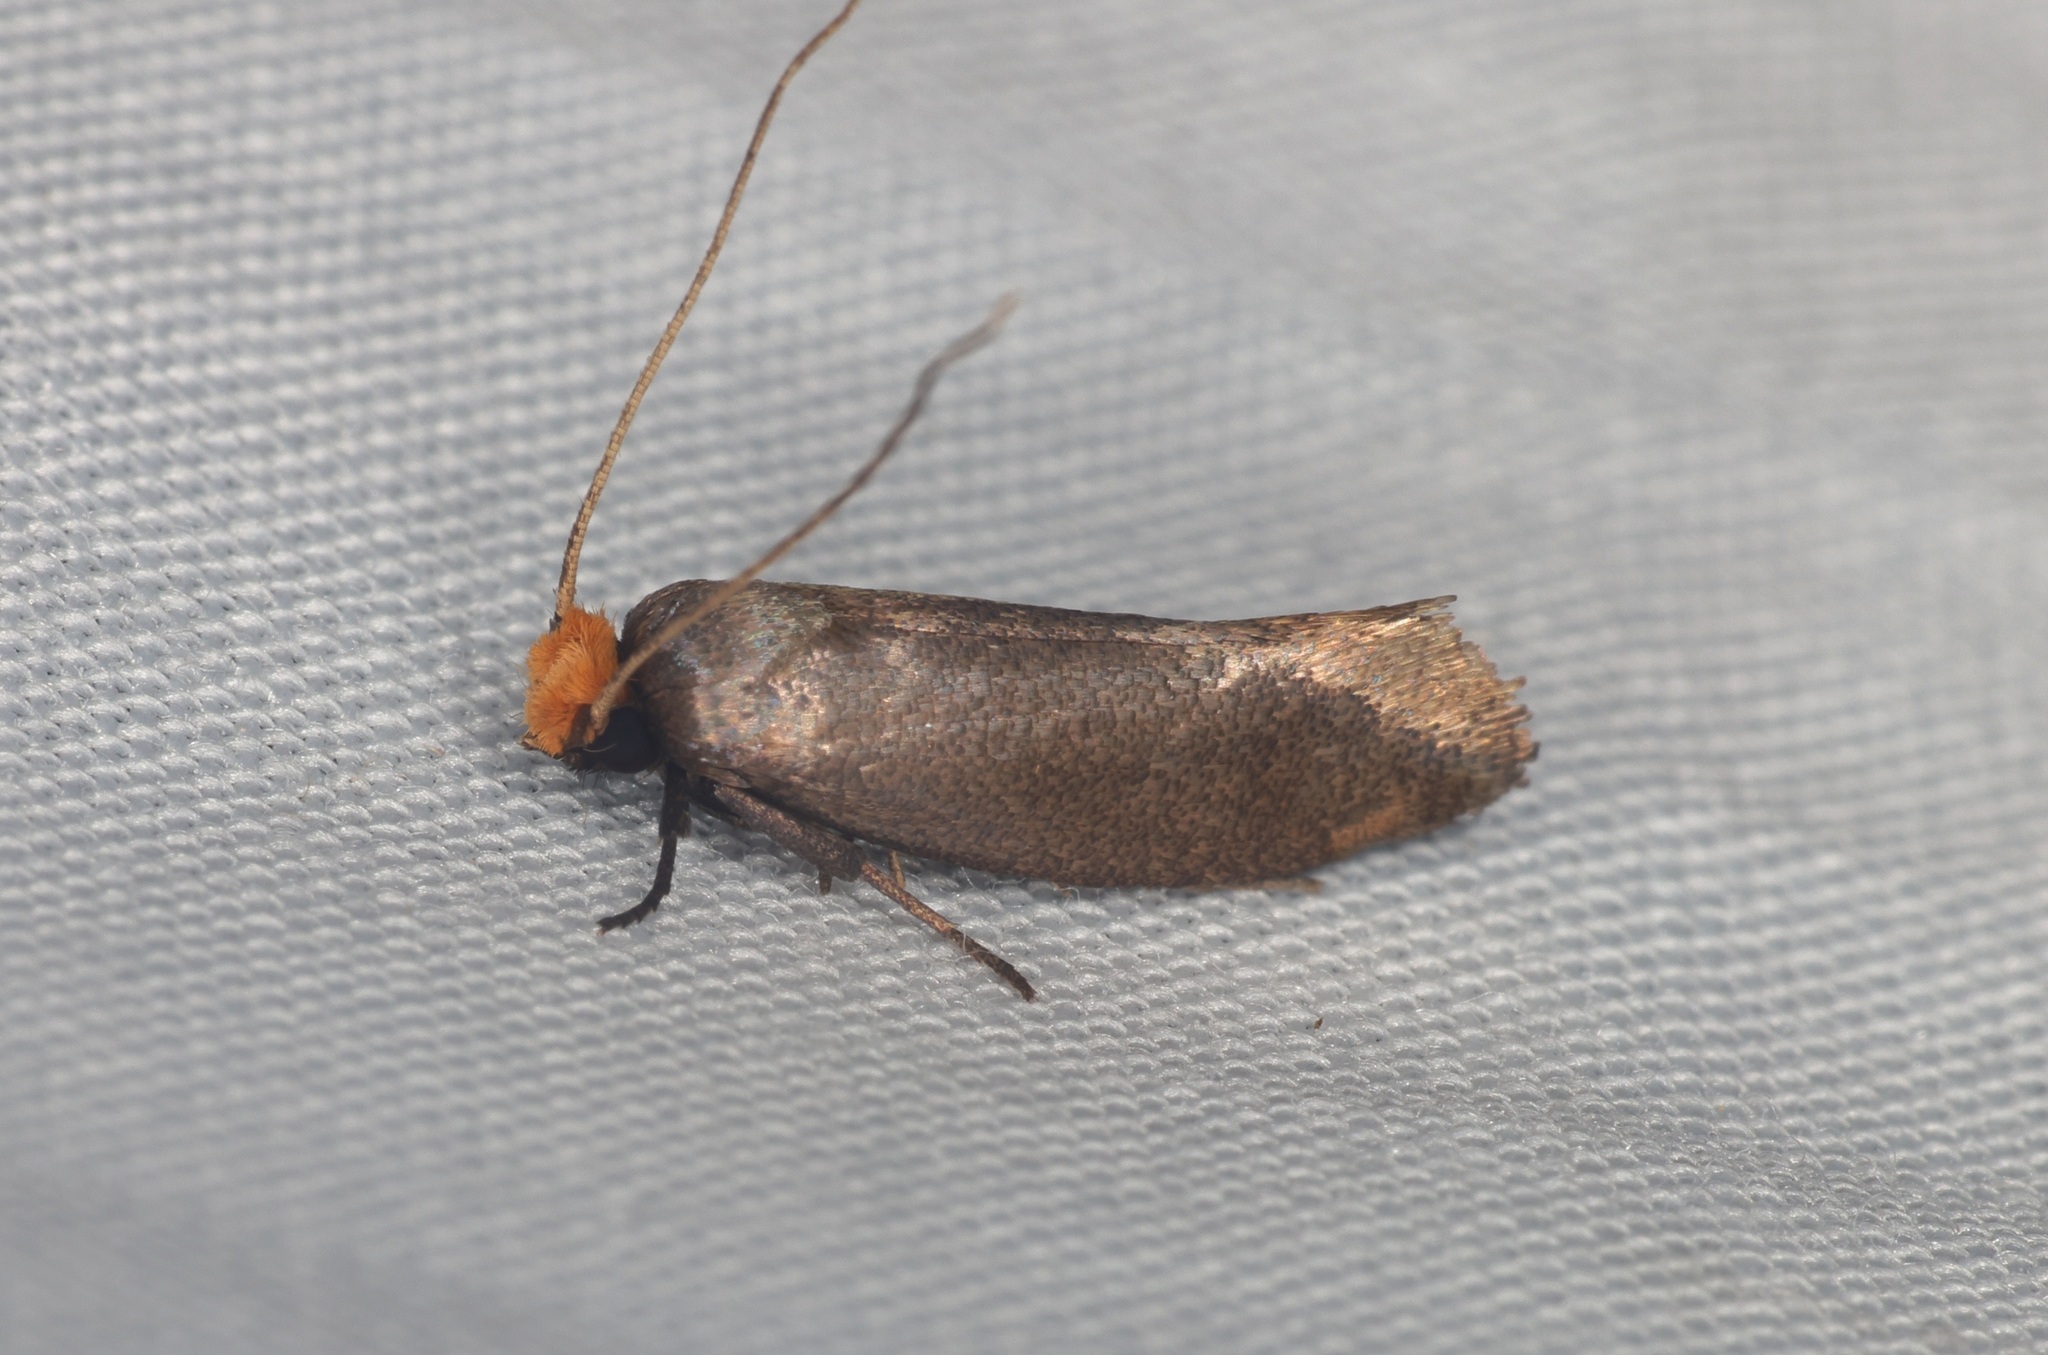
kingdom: Animalia
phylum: Arthropoda
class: Insecta
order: Lepidoptera
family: Tineidae
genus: Edosa
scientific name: Edosa varians
